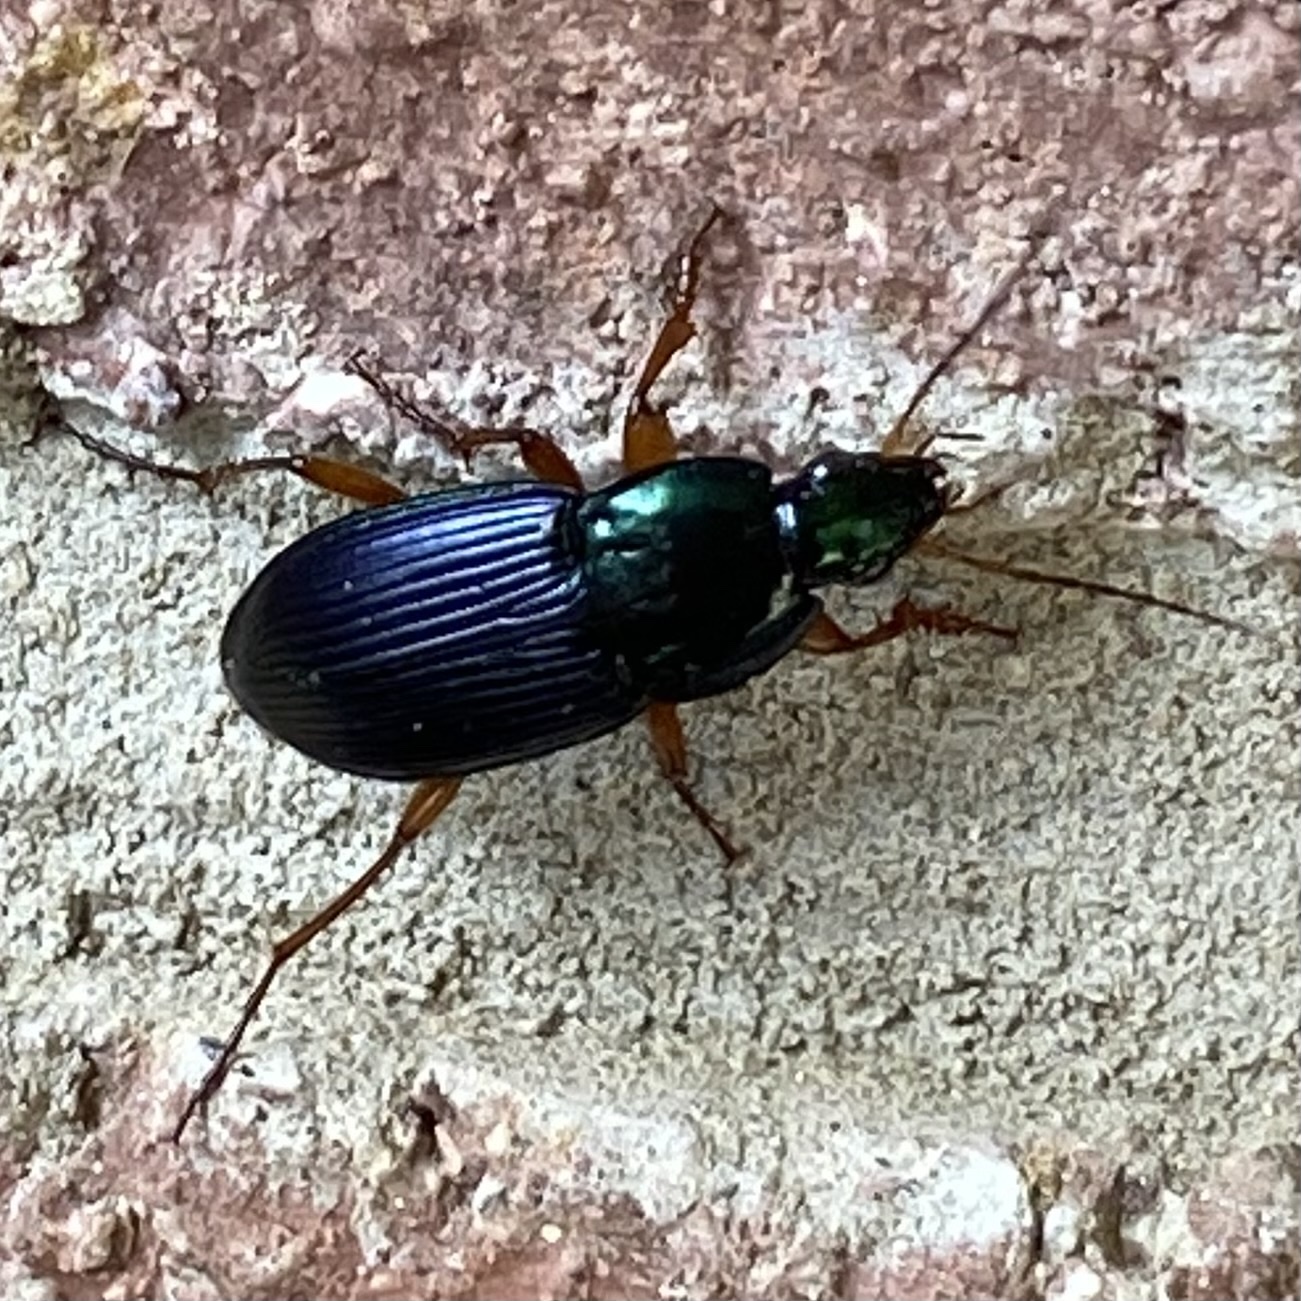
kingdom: Animalia
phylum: Arthropoda
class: Insecta
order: Coleoptera
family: Carabidae
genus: Poecilus
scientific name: Poecilus lucublandus
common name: Woodland ground beetle
